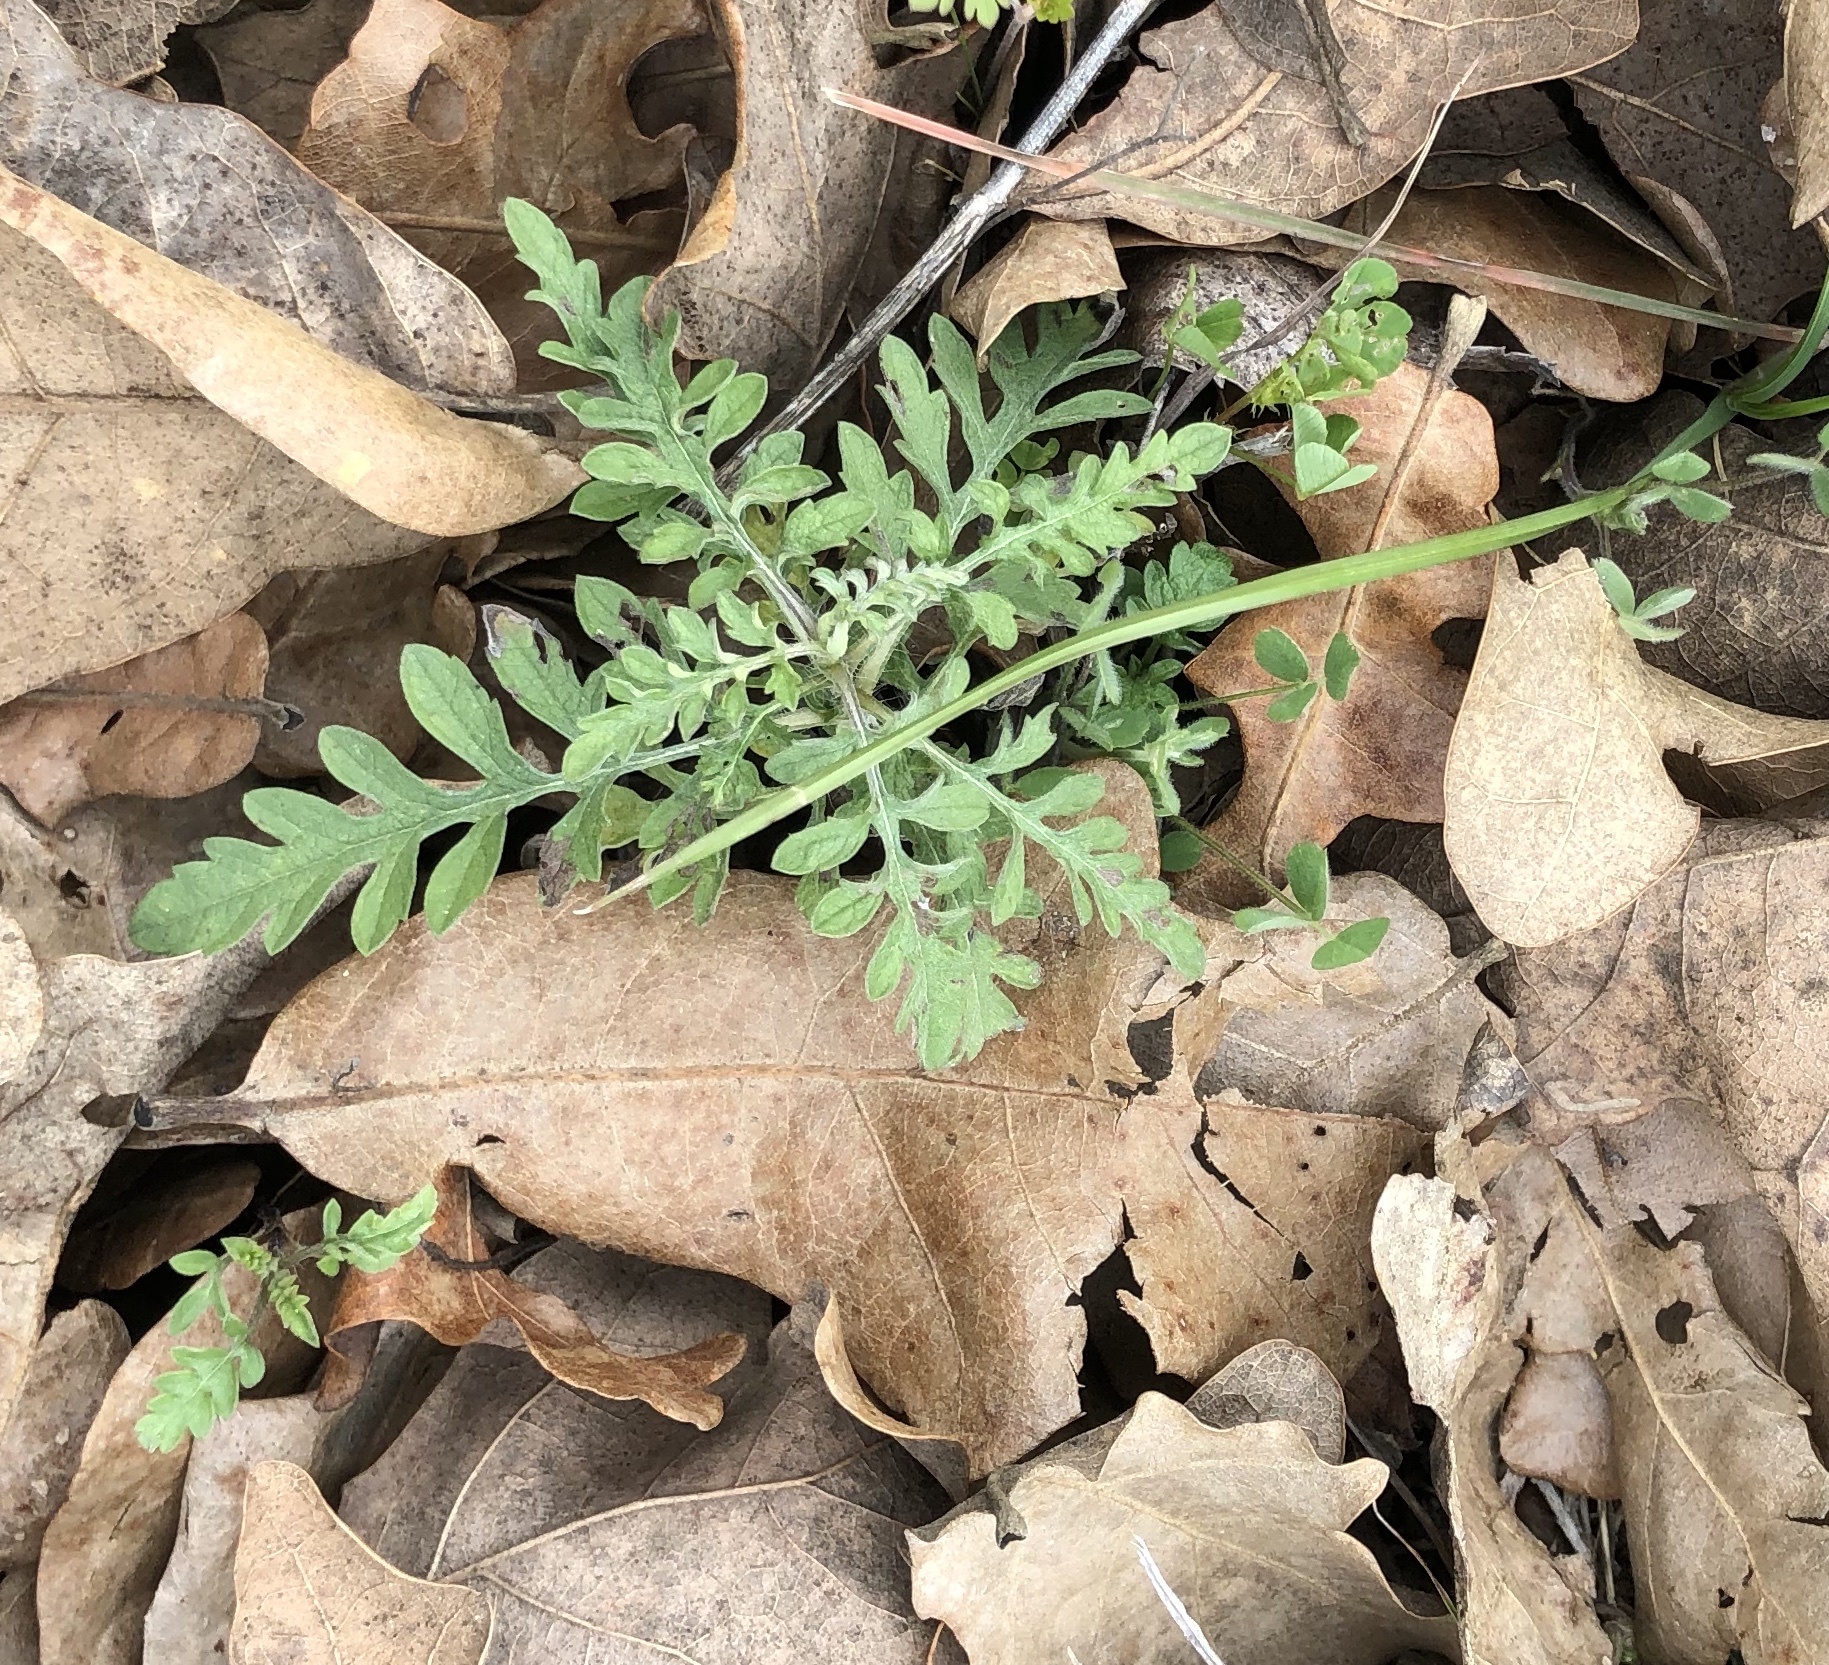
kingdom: Plantae
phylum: Tracheophyta
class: Magnoliopsida
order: Asterales
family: Asteraceae
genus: Ambrosia
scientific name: Ambrosia psilostachya
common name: Perennial ragweed
